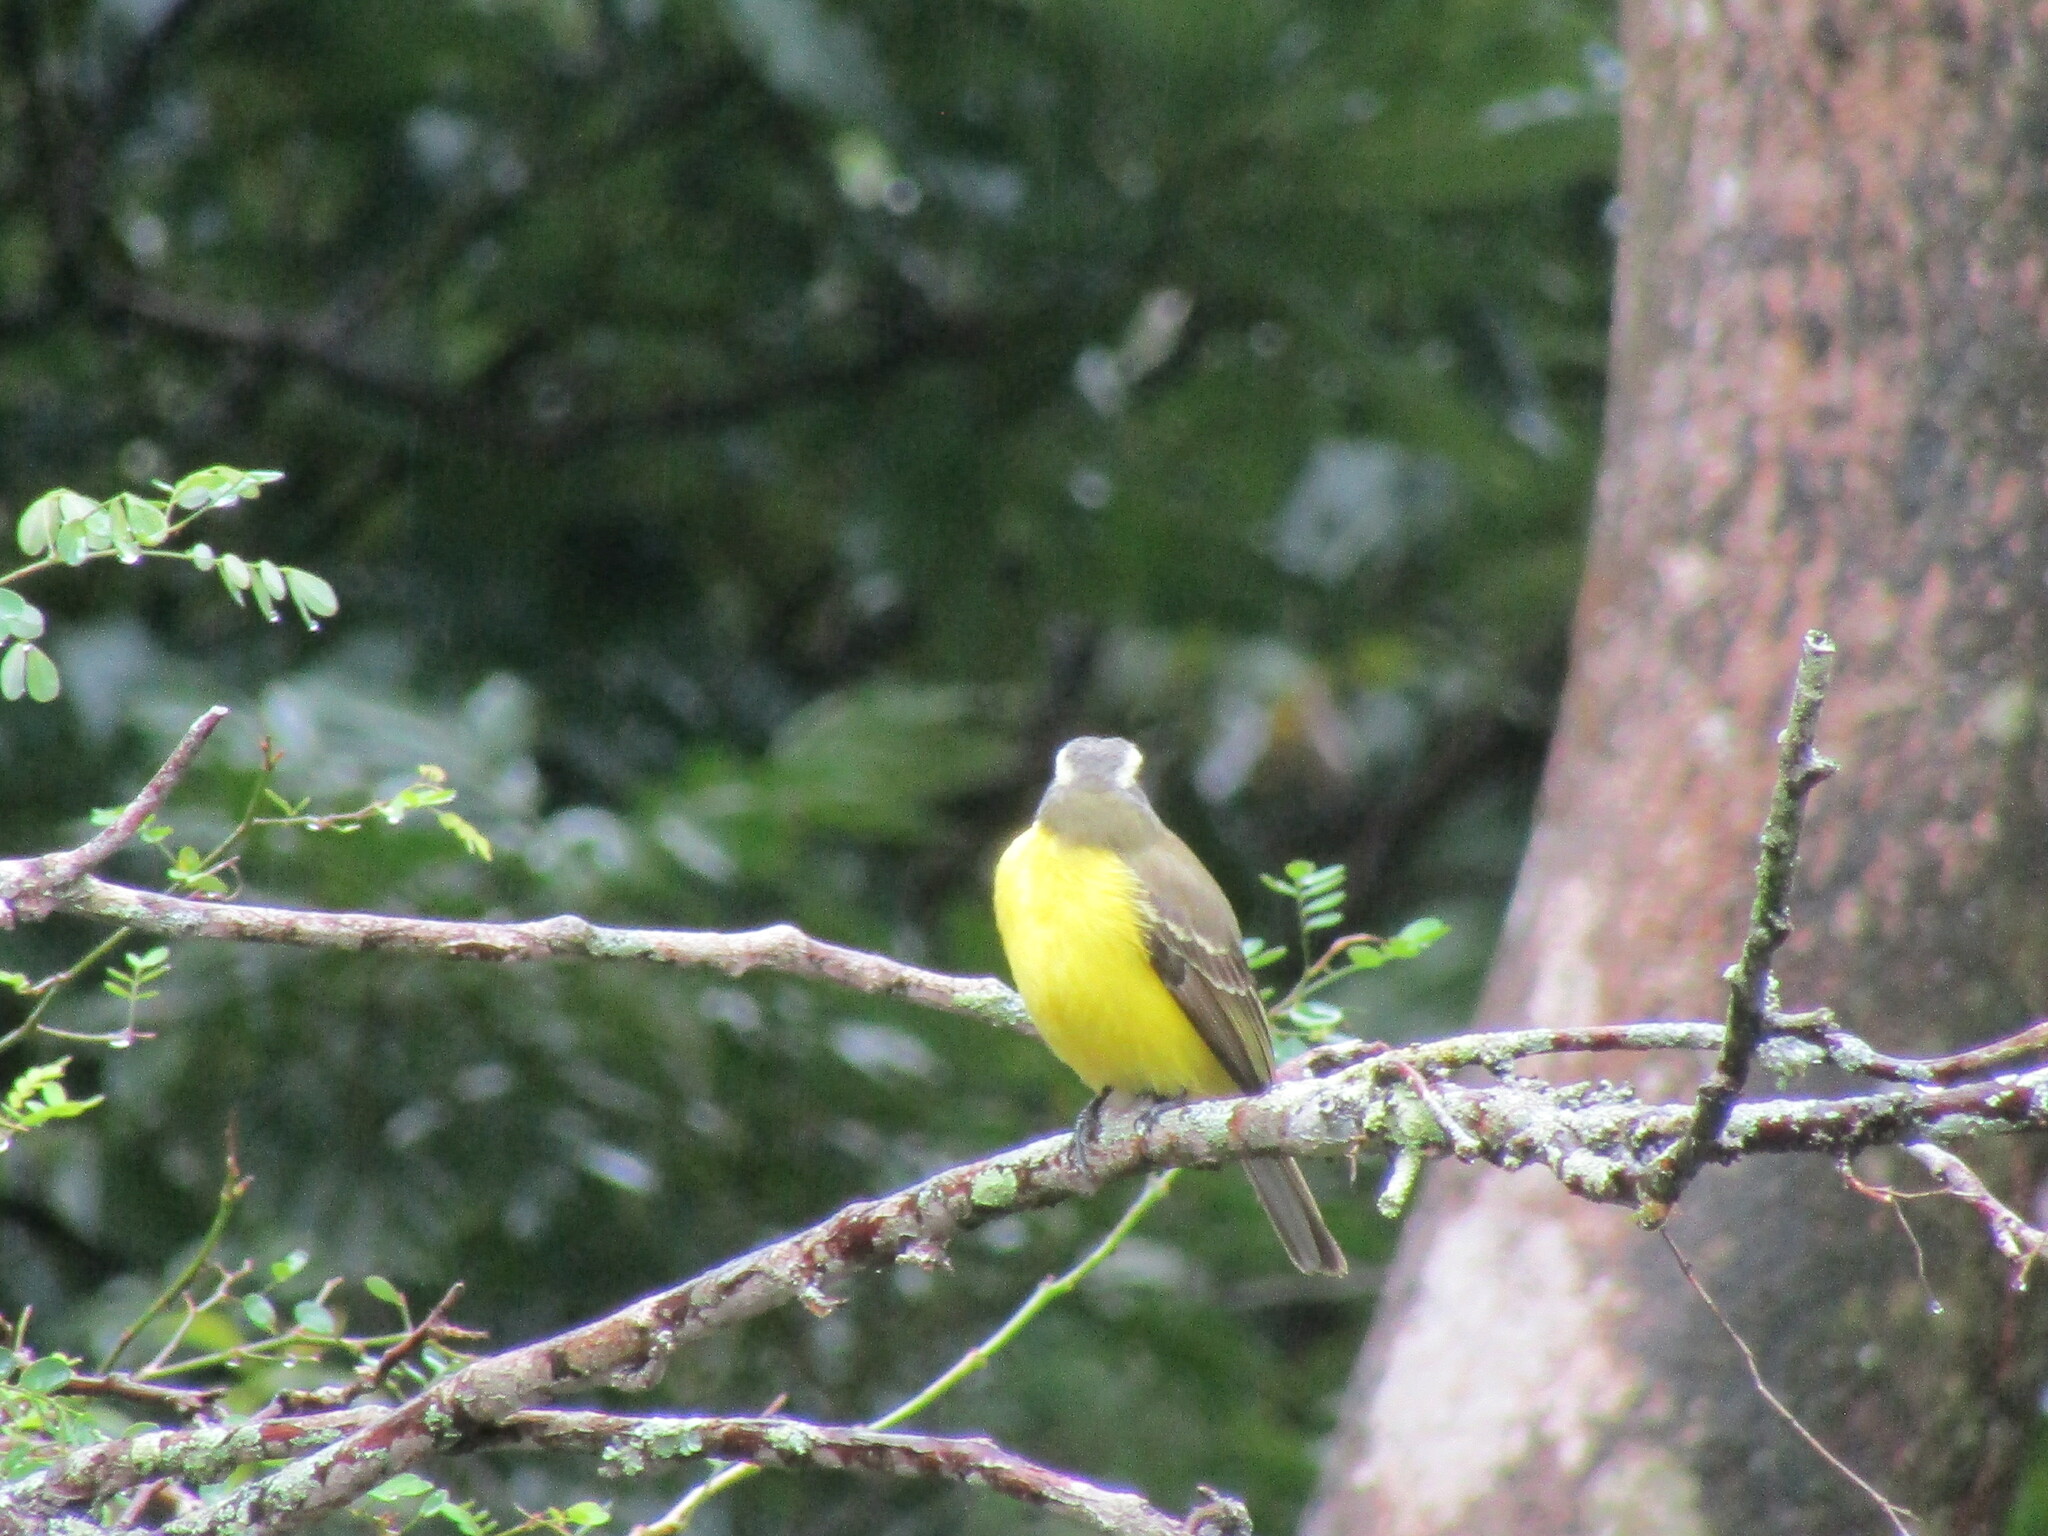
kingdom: Animalia
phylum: Chordata
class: Aves
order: Passeriformes
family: Tyrannidae
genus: Myiozetetes
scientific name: Myiozetetes similis
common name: Social flycatcher
